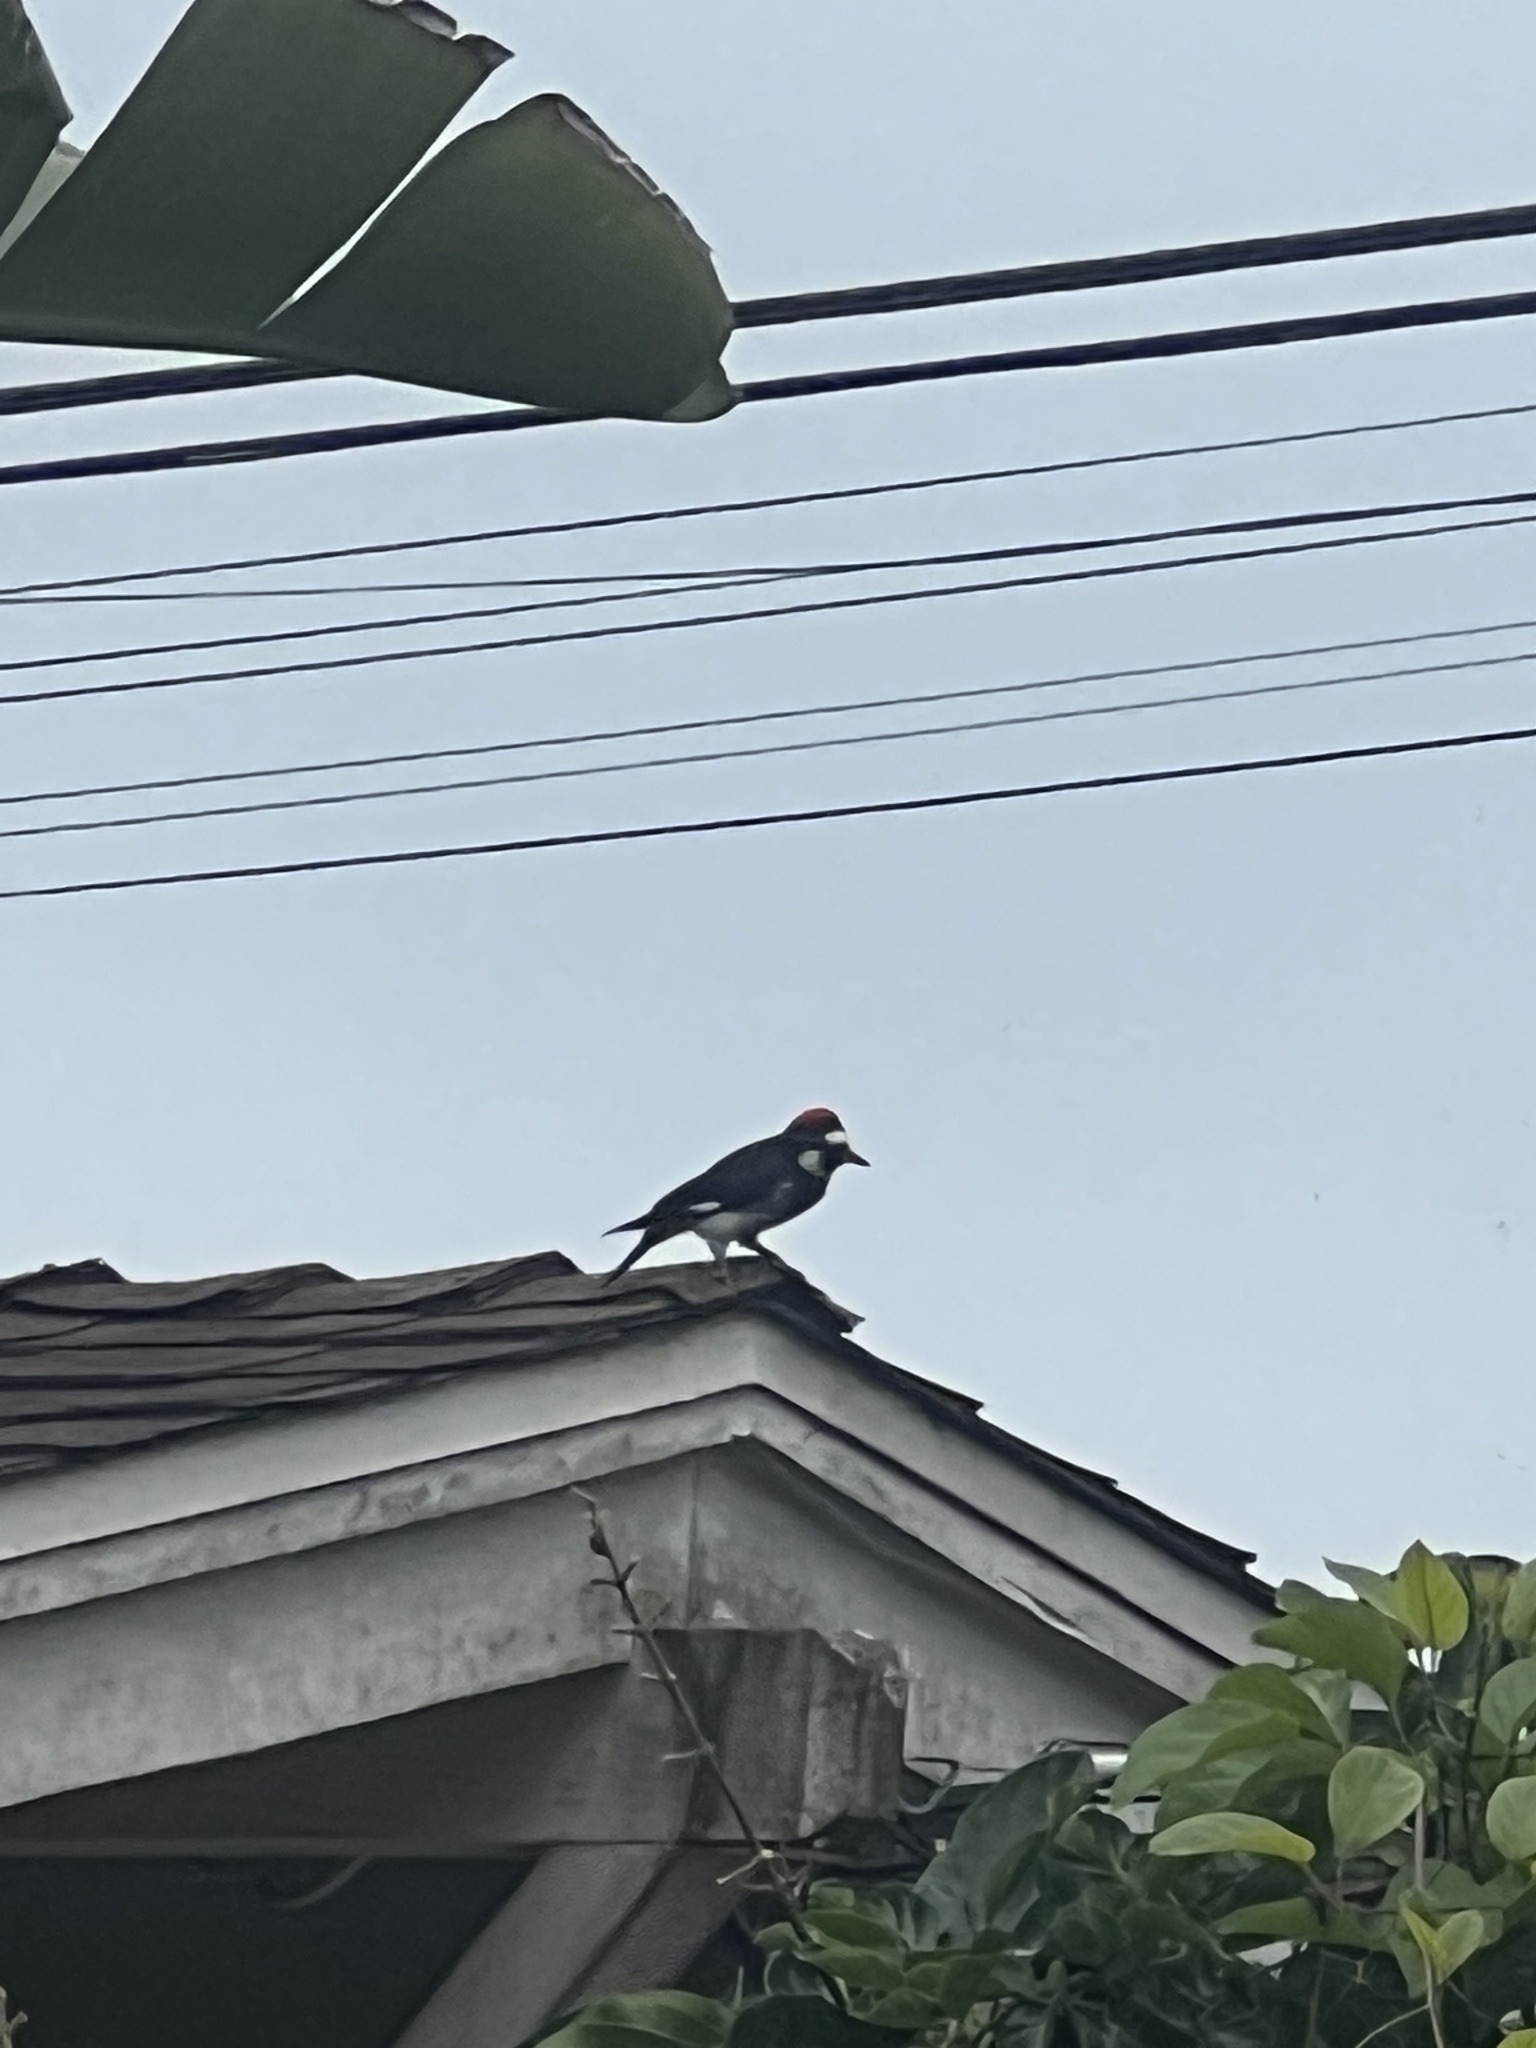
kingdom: Animalia
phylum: Chordata
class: Aves
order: Piciformes
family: Picidae
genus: Melanerpes
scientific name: Melanerpes formicivorus
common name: Acorn woodpecker
